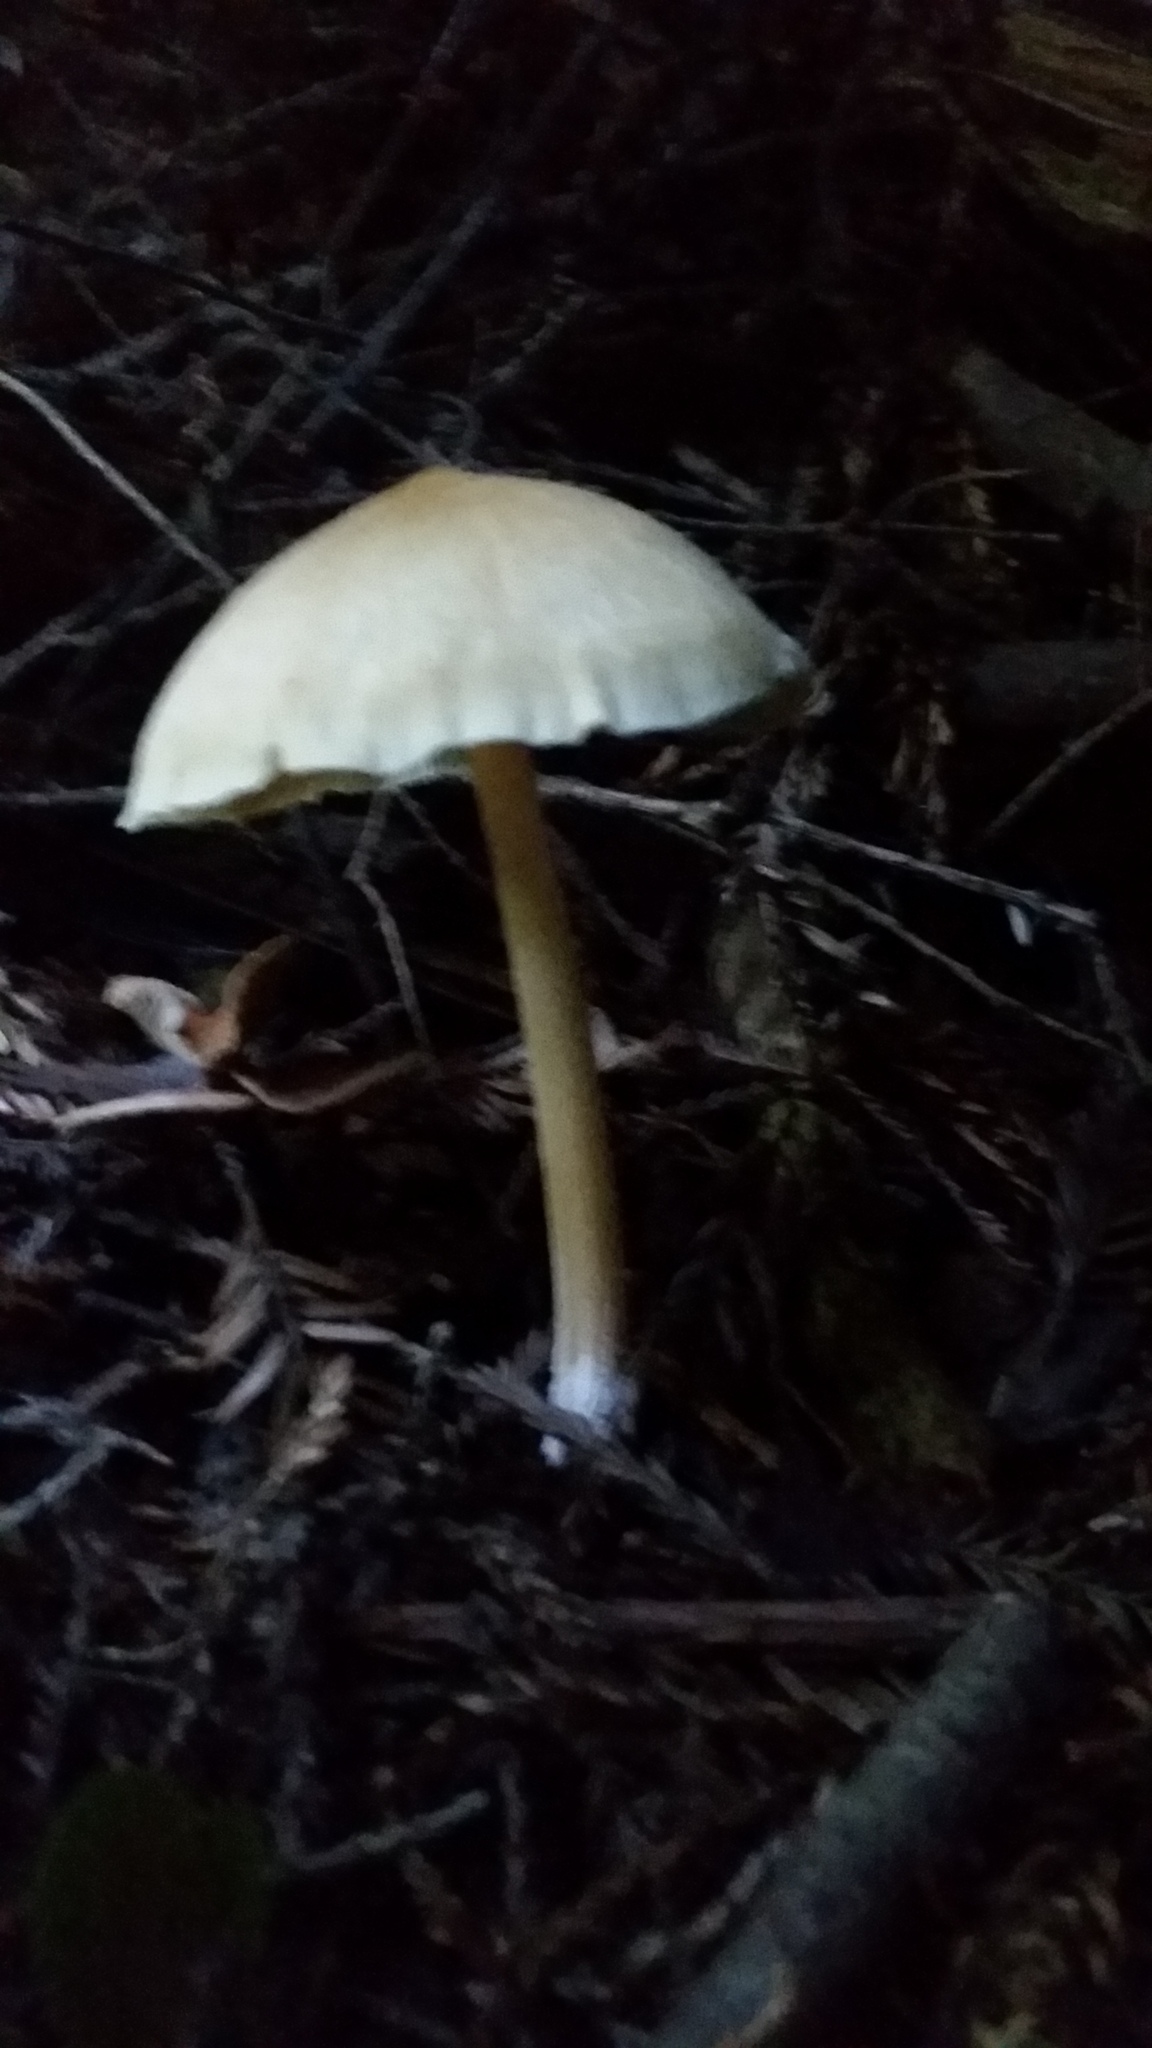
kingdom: Fungi
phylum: Basidiomycota
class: Agaricomycetes
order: Agaricales
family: Tricholomataceae
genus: Caulorhiza
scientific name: Caulorhiza umbonata
